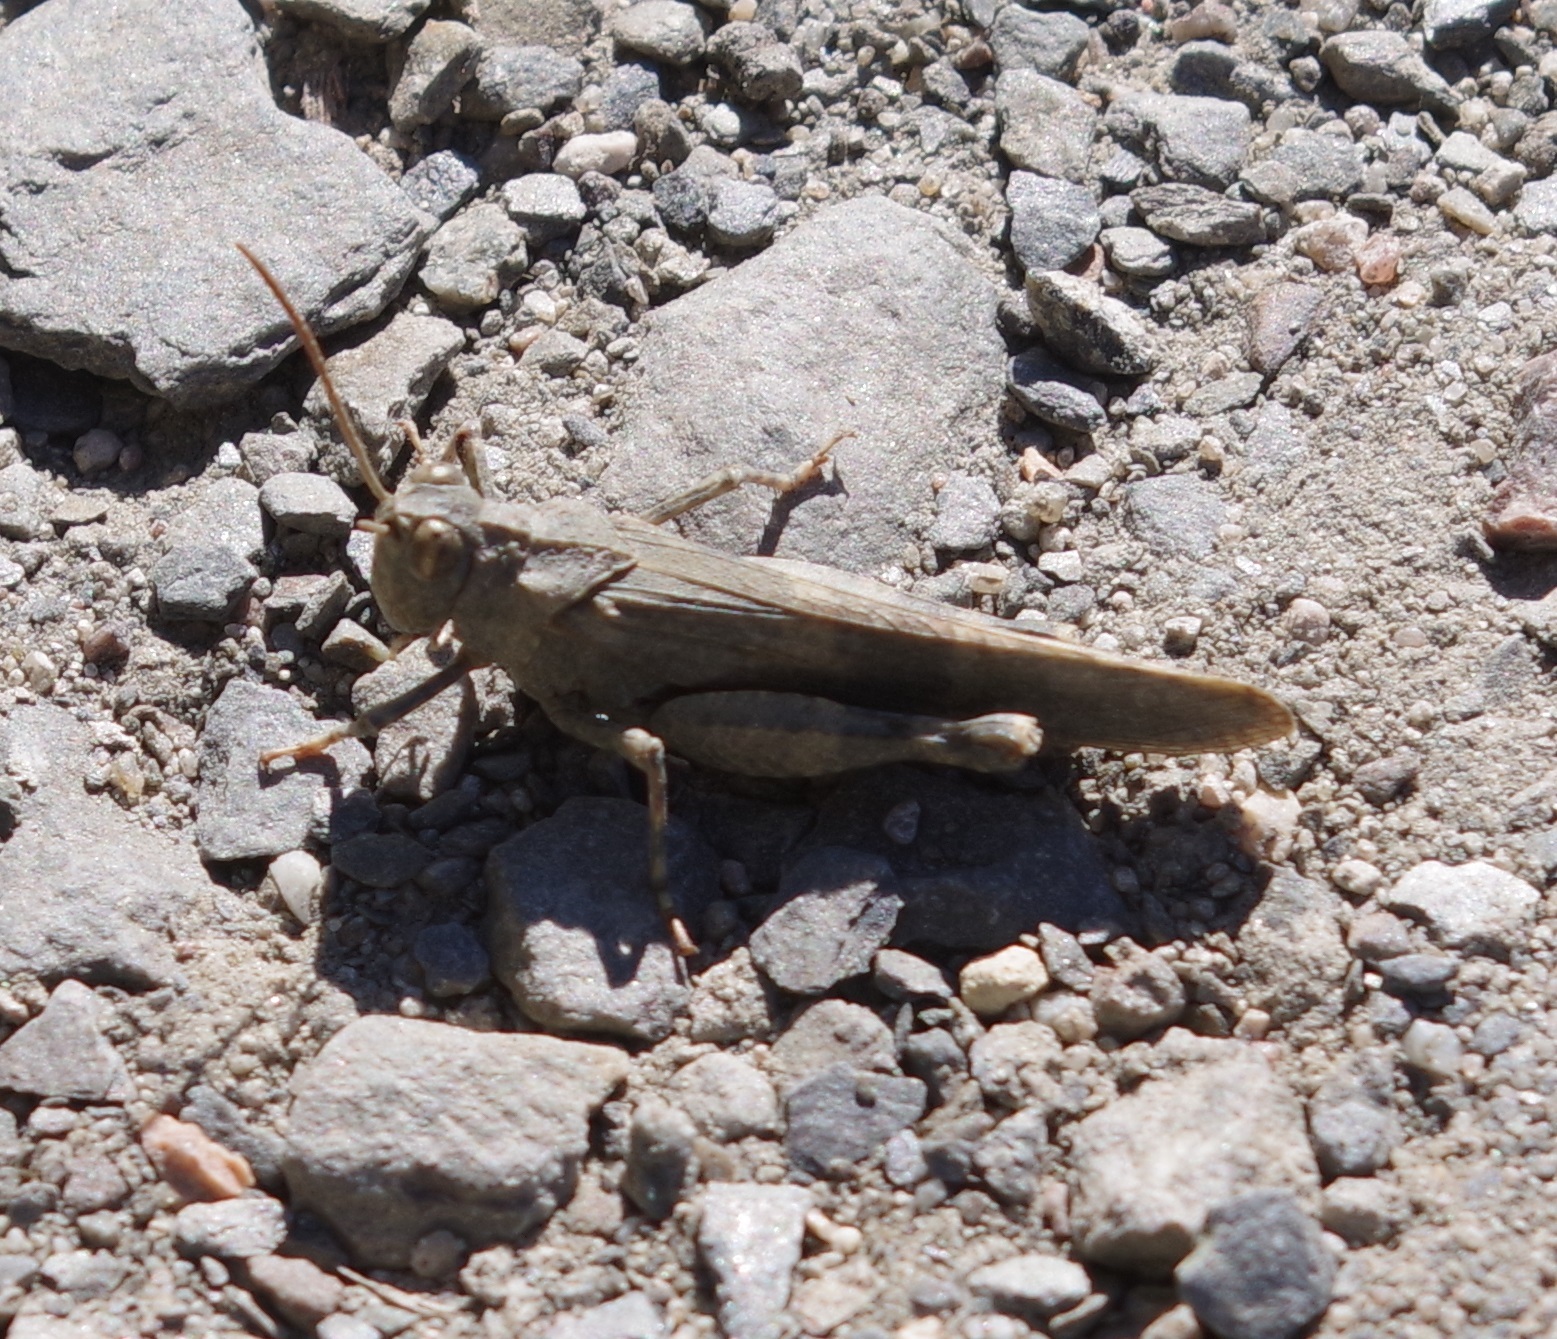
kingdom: Animalia
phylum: Arthropoda
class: Insecta
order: Orthoptera
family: Acrididae
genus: Oedipoda
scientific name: Oedipoda germanica
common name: Red band-winged grasshopper
